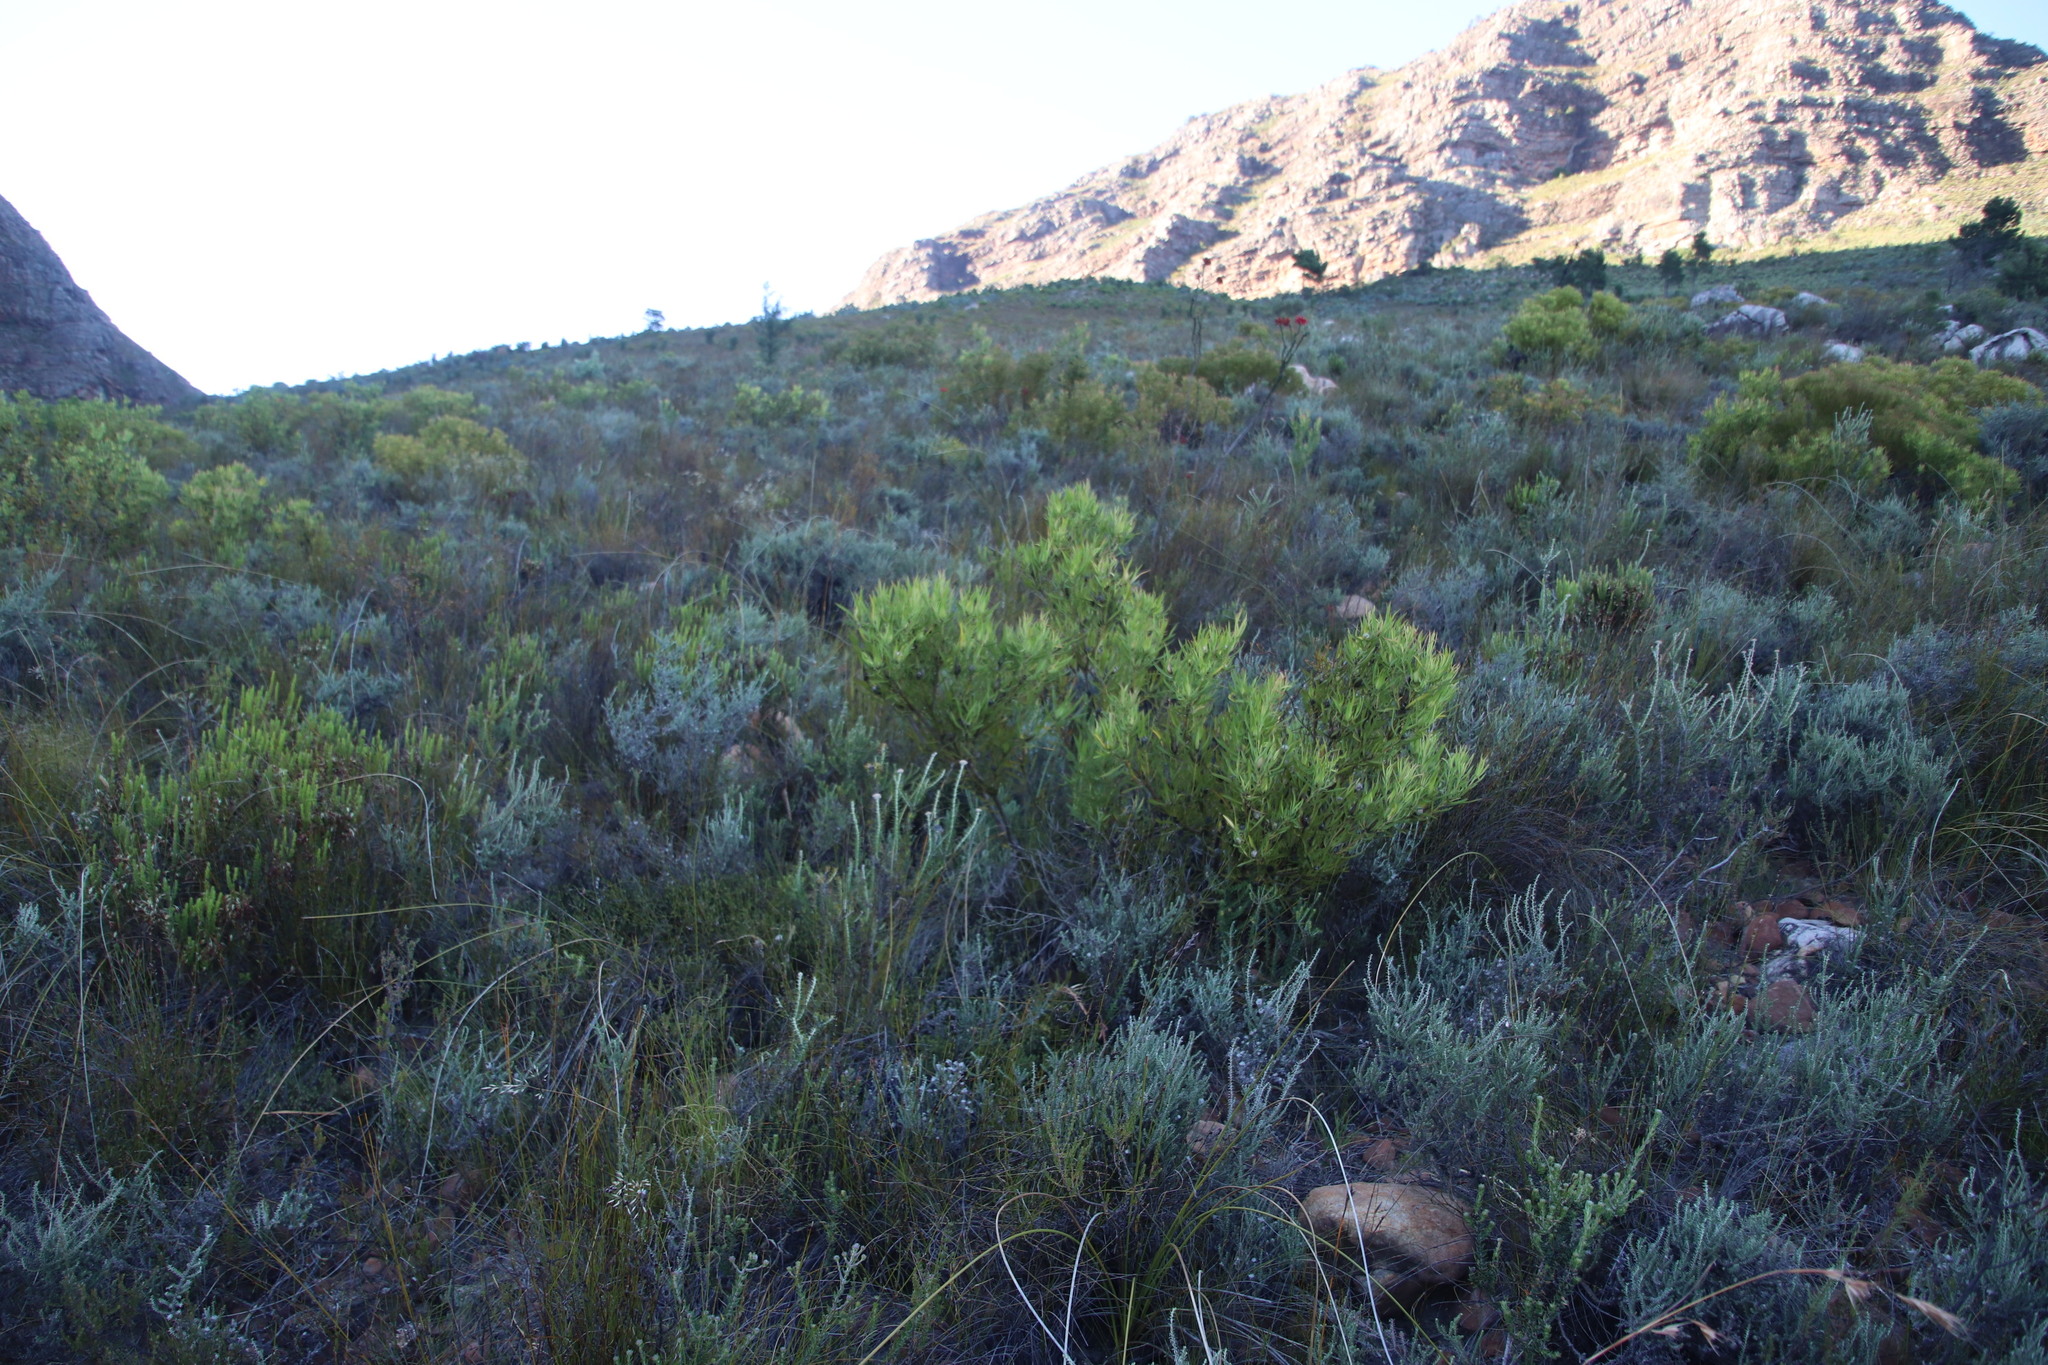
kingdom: Plantae
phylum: Tracheophyta
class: Magnoliopsida
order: Proteales
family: Proteaceae
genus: Leucadendron
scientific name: Leucadendron salignum
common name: Common sunshine conebush
